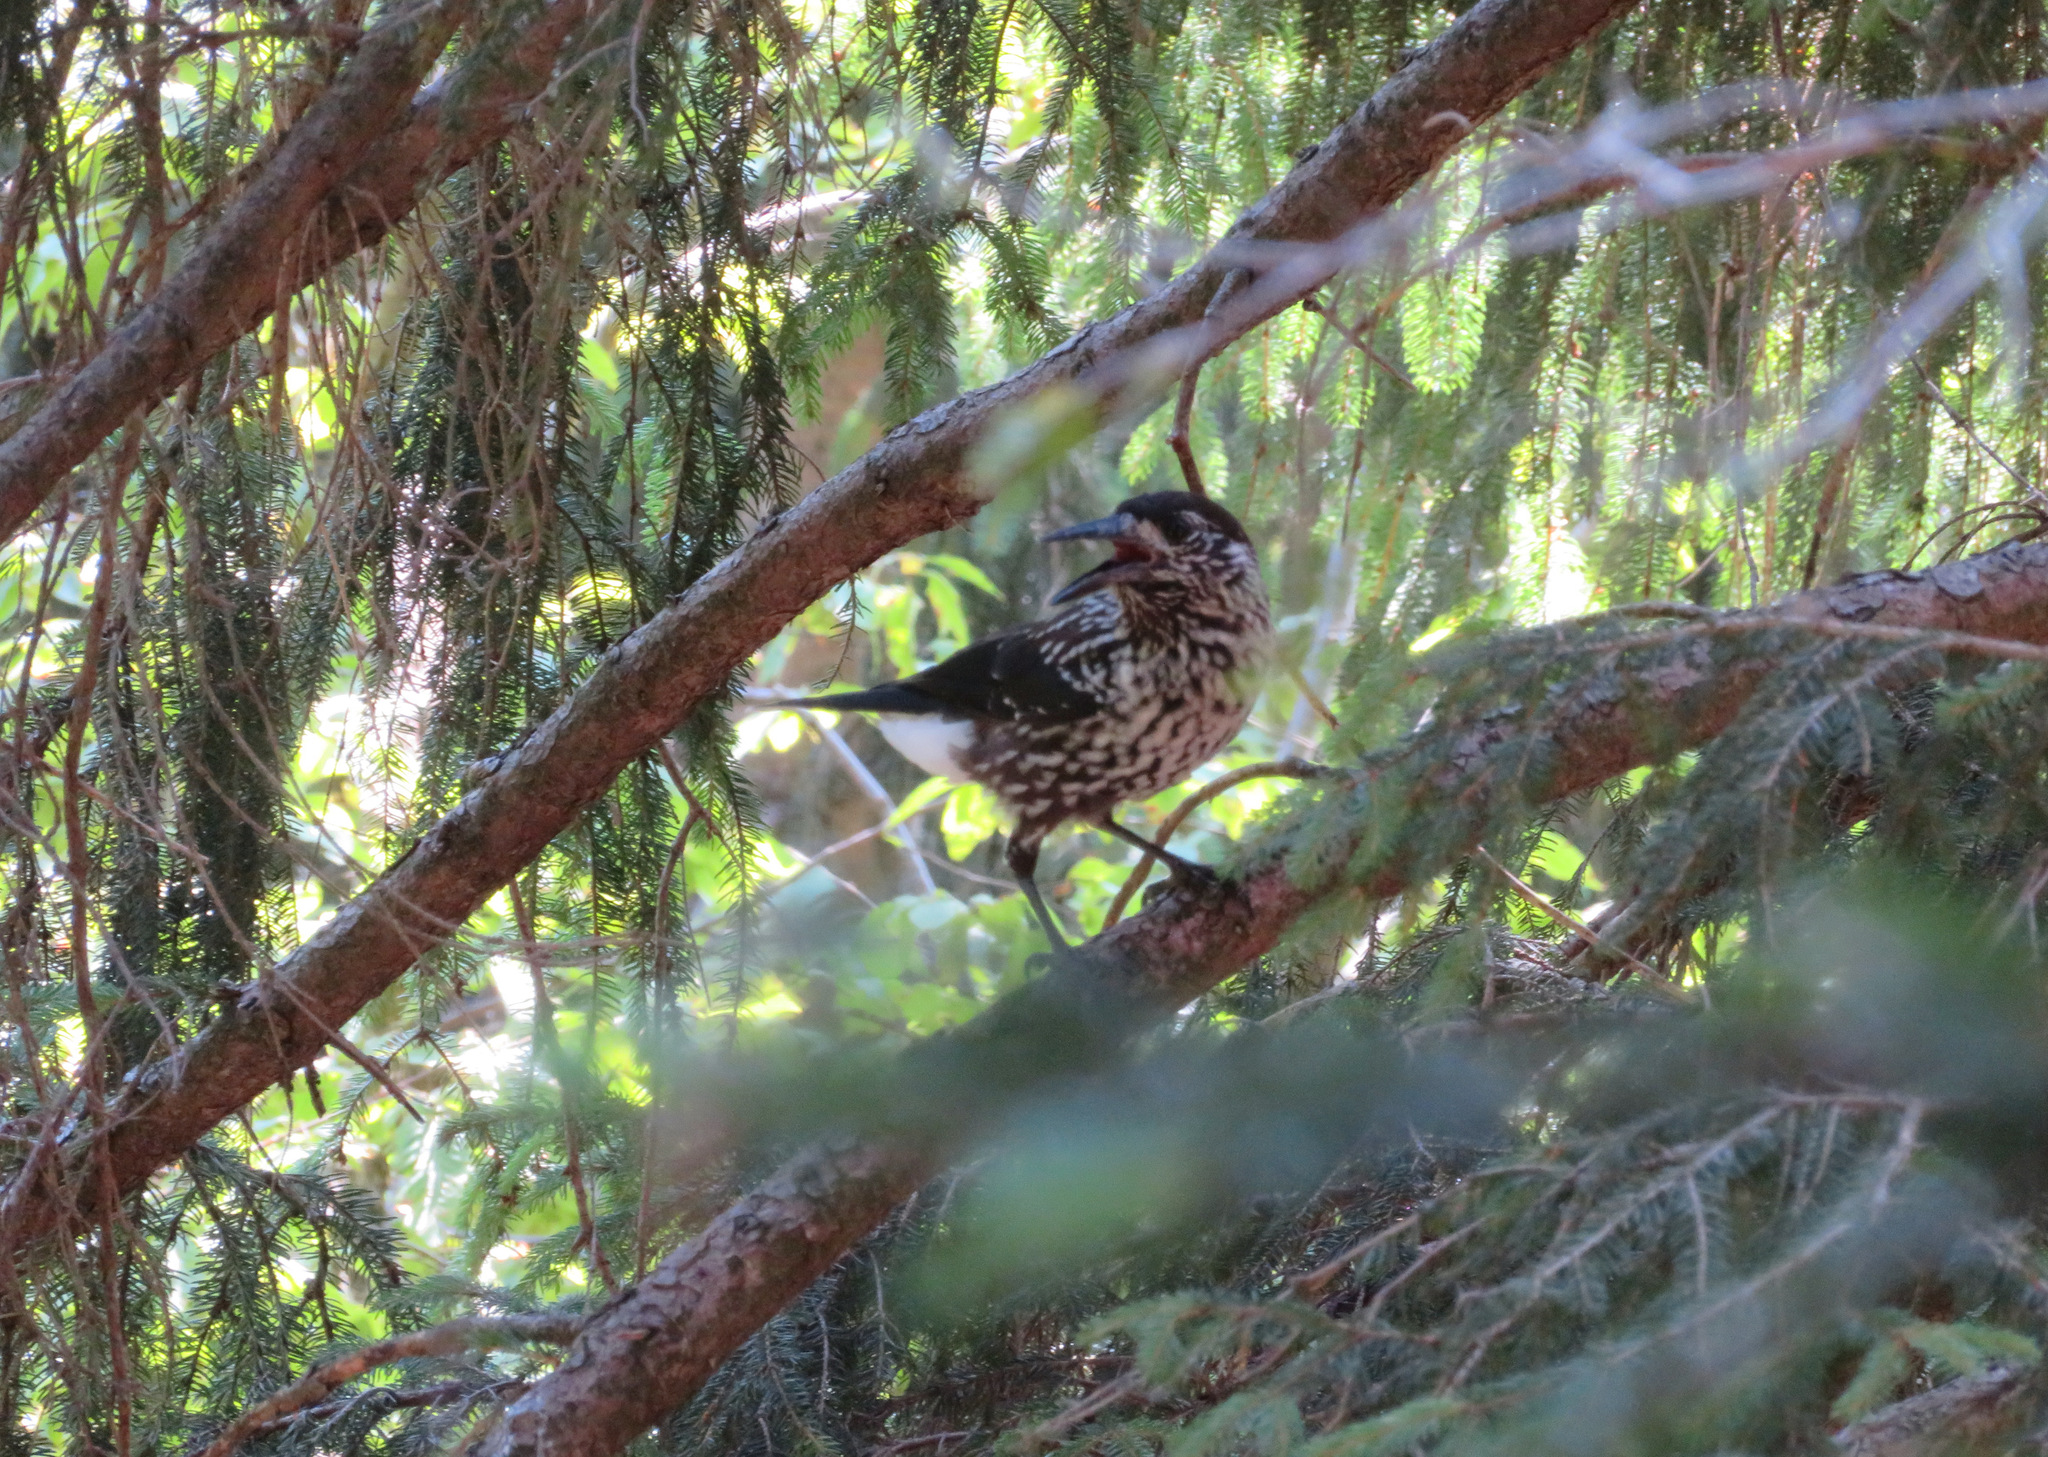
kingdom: Animalia
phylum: Chordata
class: Aves
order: Passeriformes
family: Corvidae
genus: Nucifraga
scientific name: Nucifraga caryocatactes
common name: Spotted nutcracker
